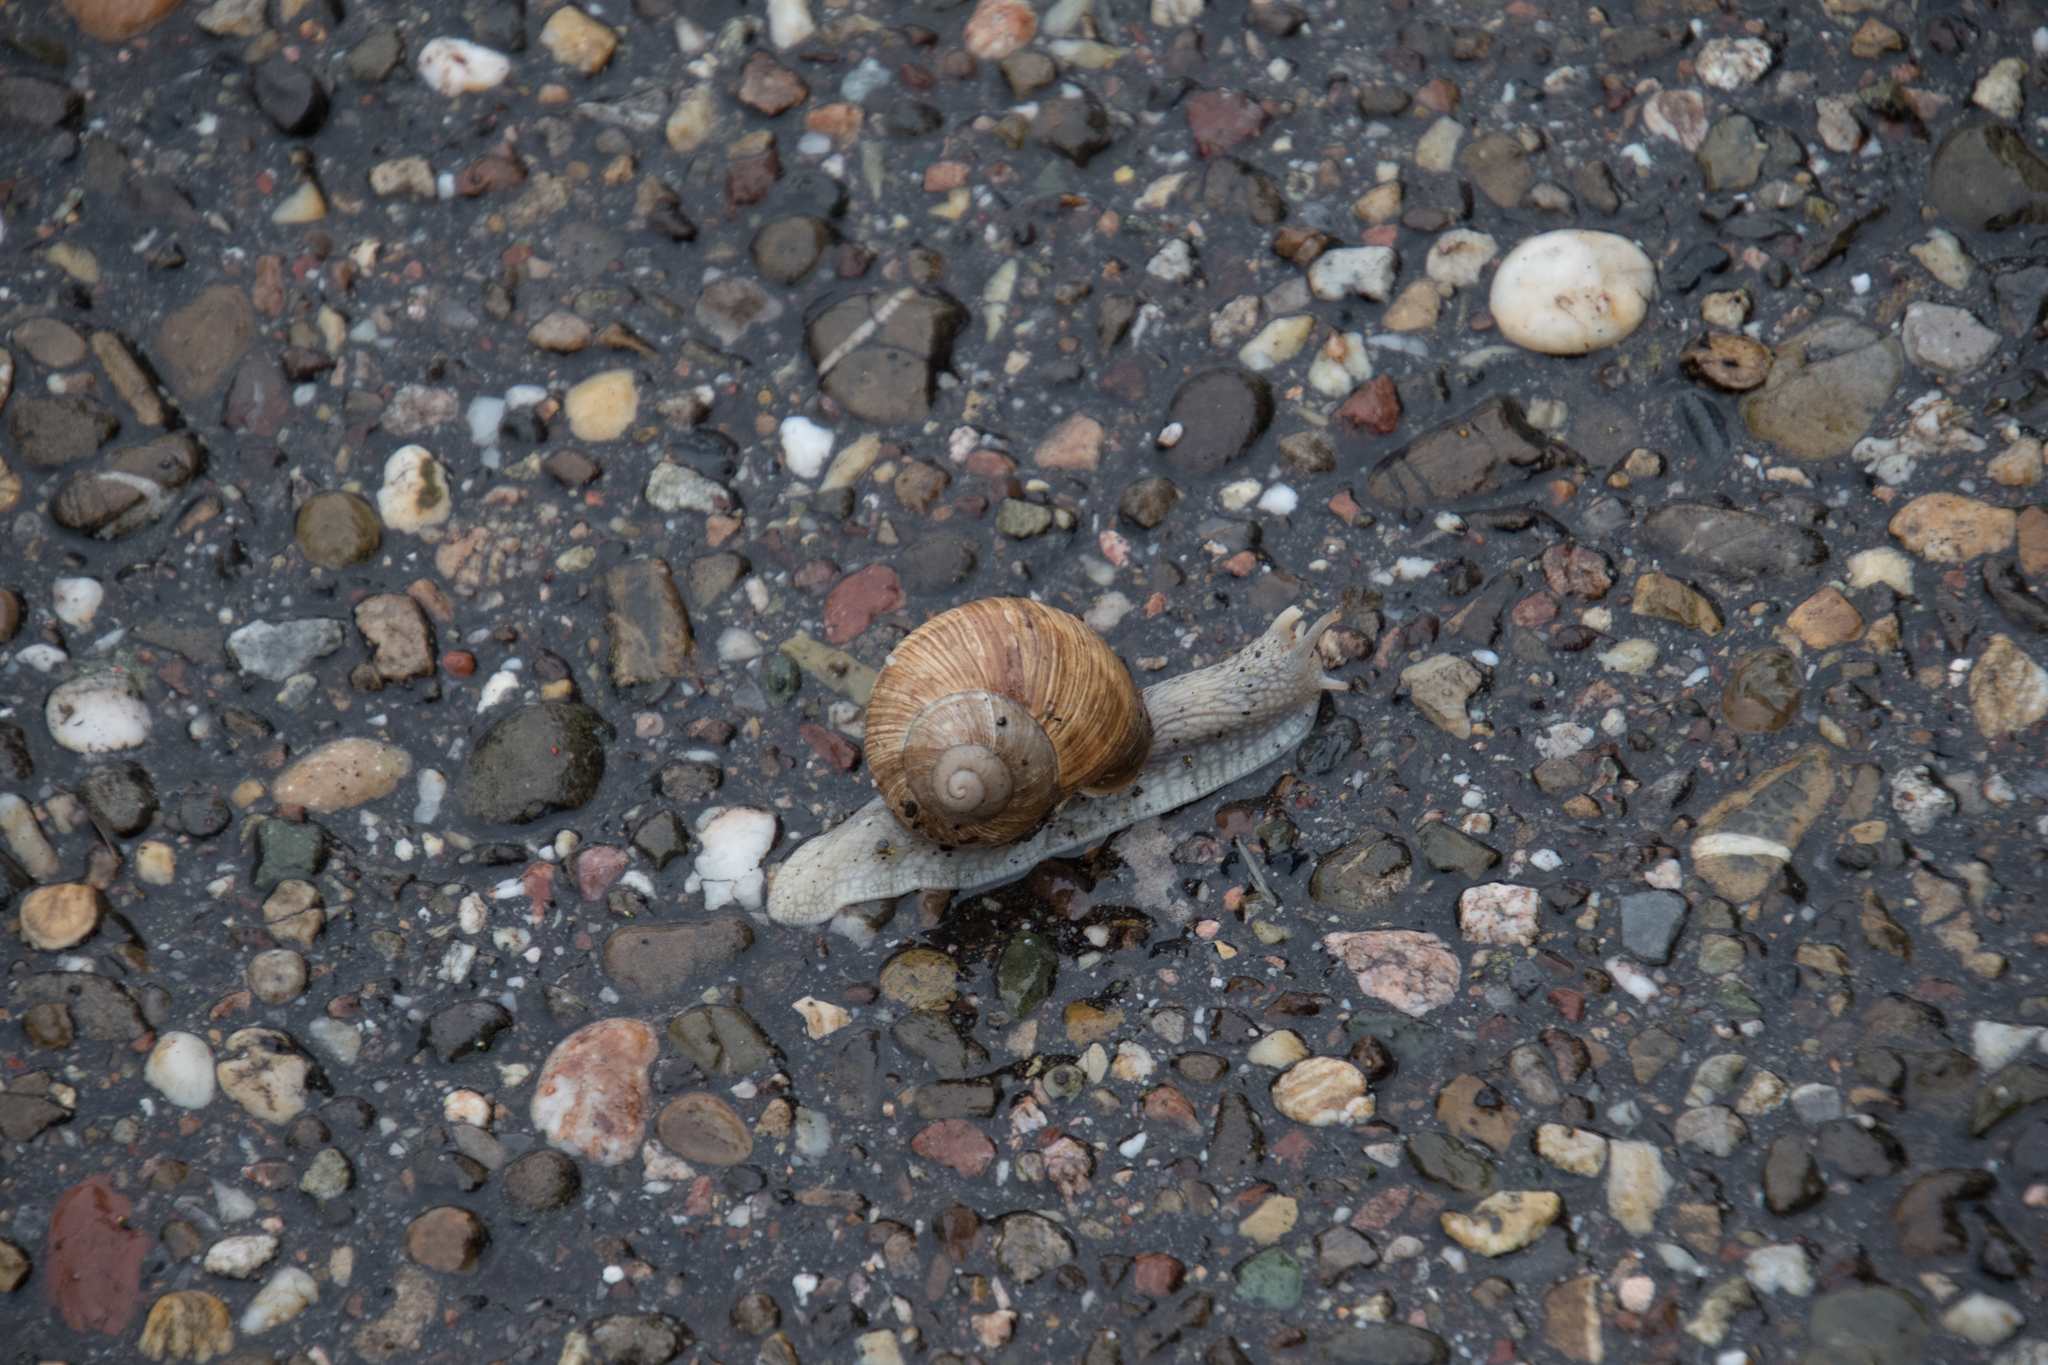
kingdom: Animalia
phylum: Mollusca
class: Gastropoda
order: Stylommatophora
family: Helicidae
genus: Helix
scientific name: Helix pomatia
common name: Roman snail
